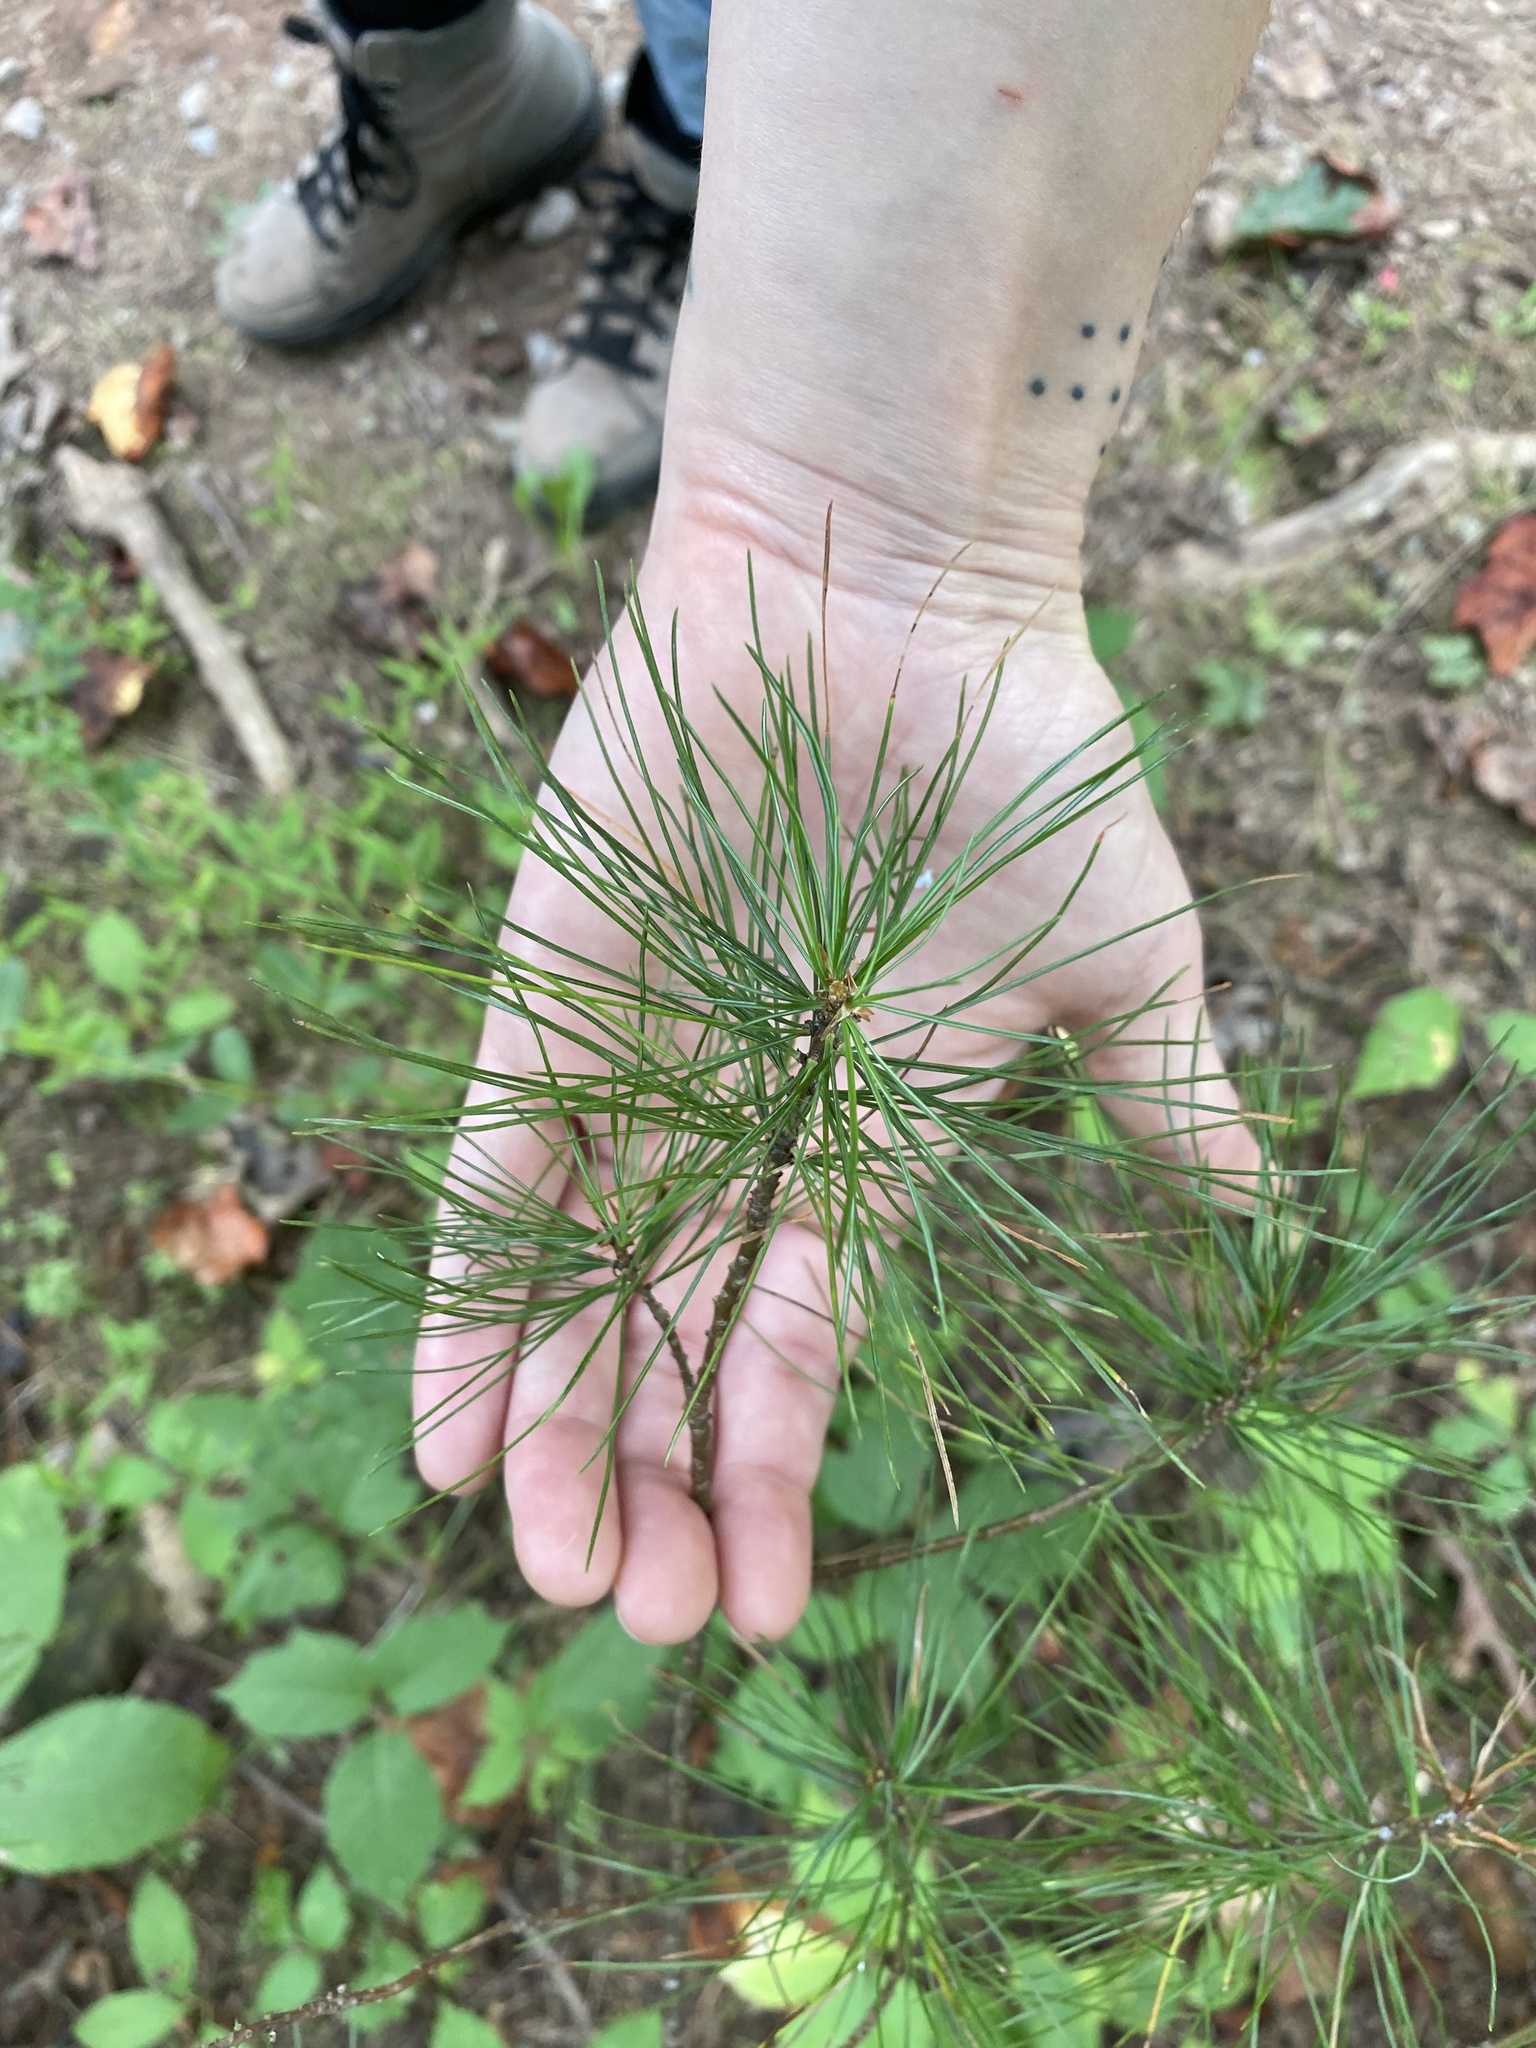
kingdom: Plantae
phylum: Tracheophyta
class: Pinopsida
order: Pinales
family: Pinaceae
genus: Pinus
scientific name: Pinus strobus
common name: Weymouth pine
